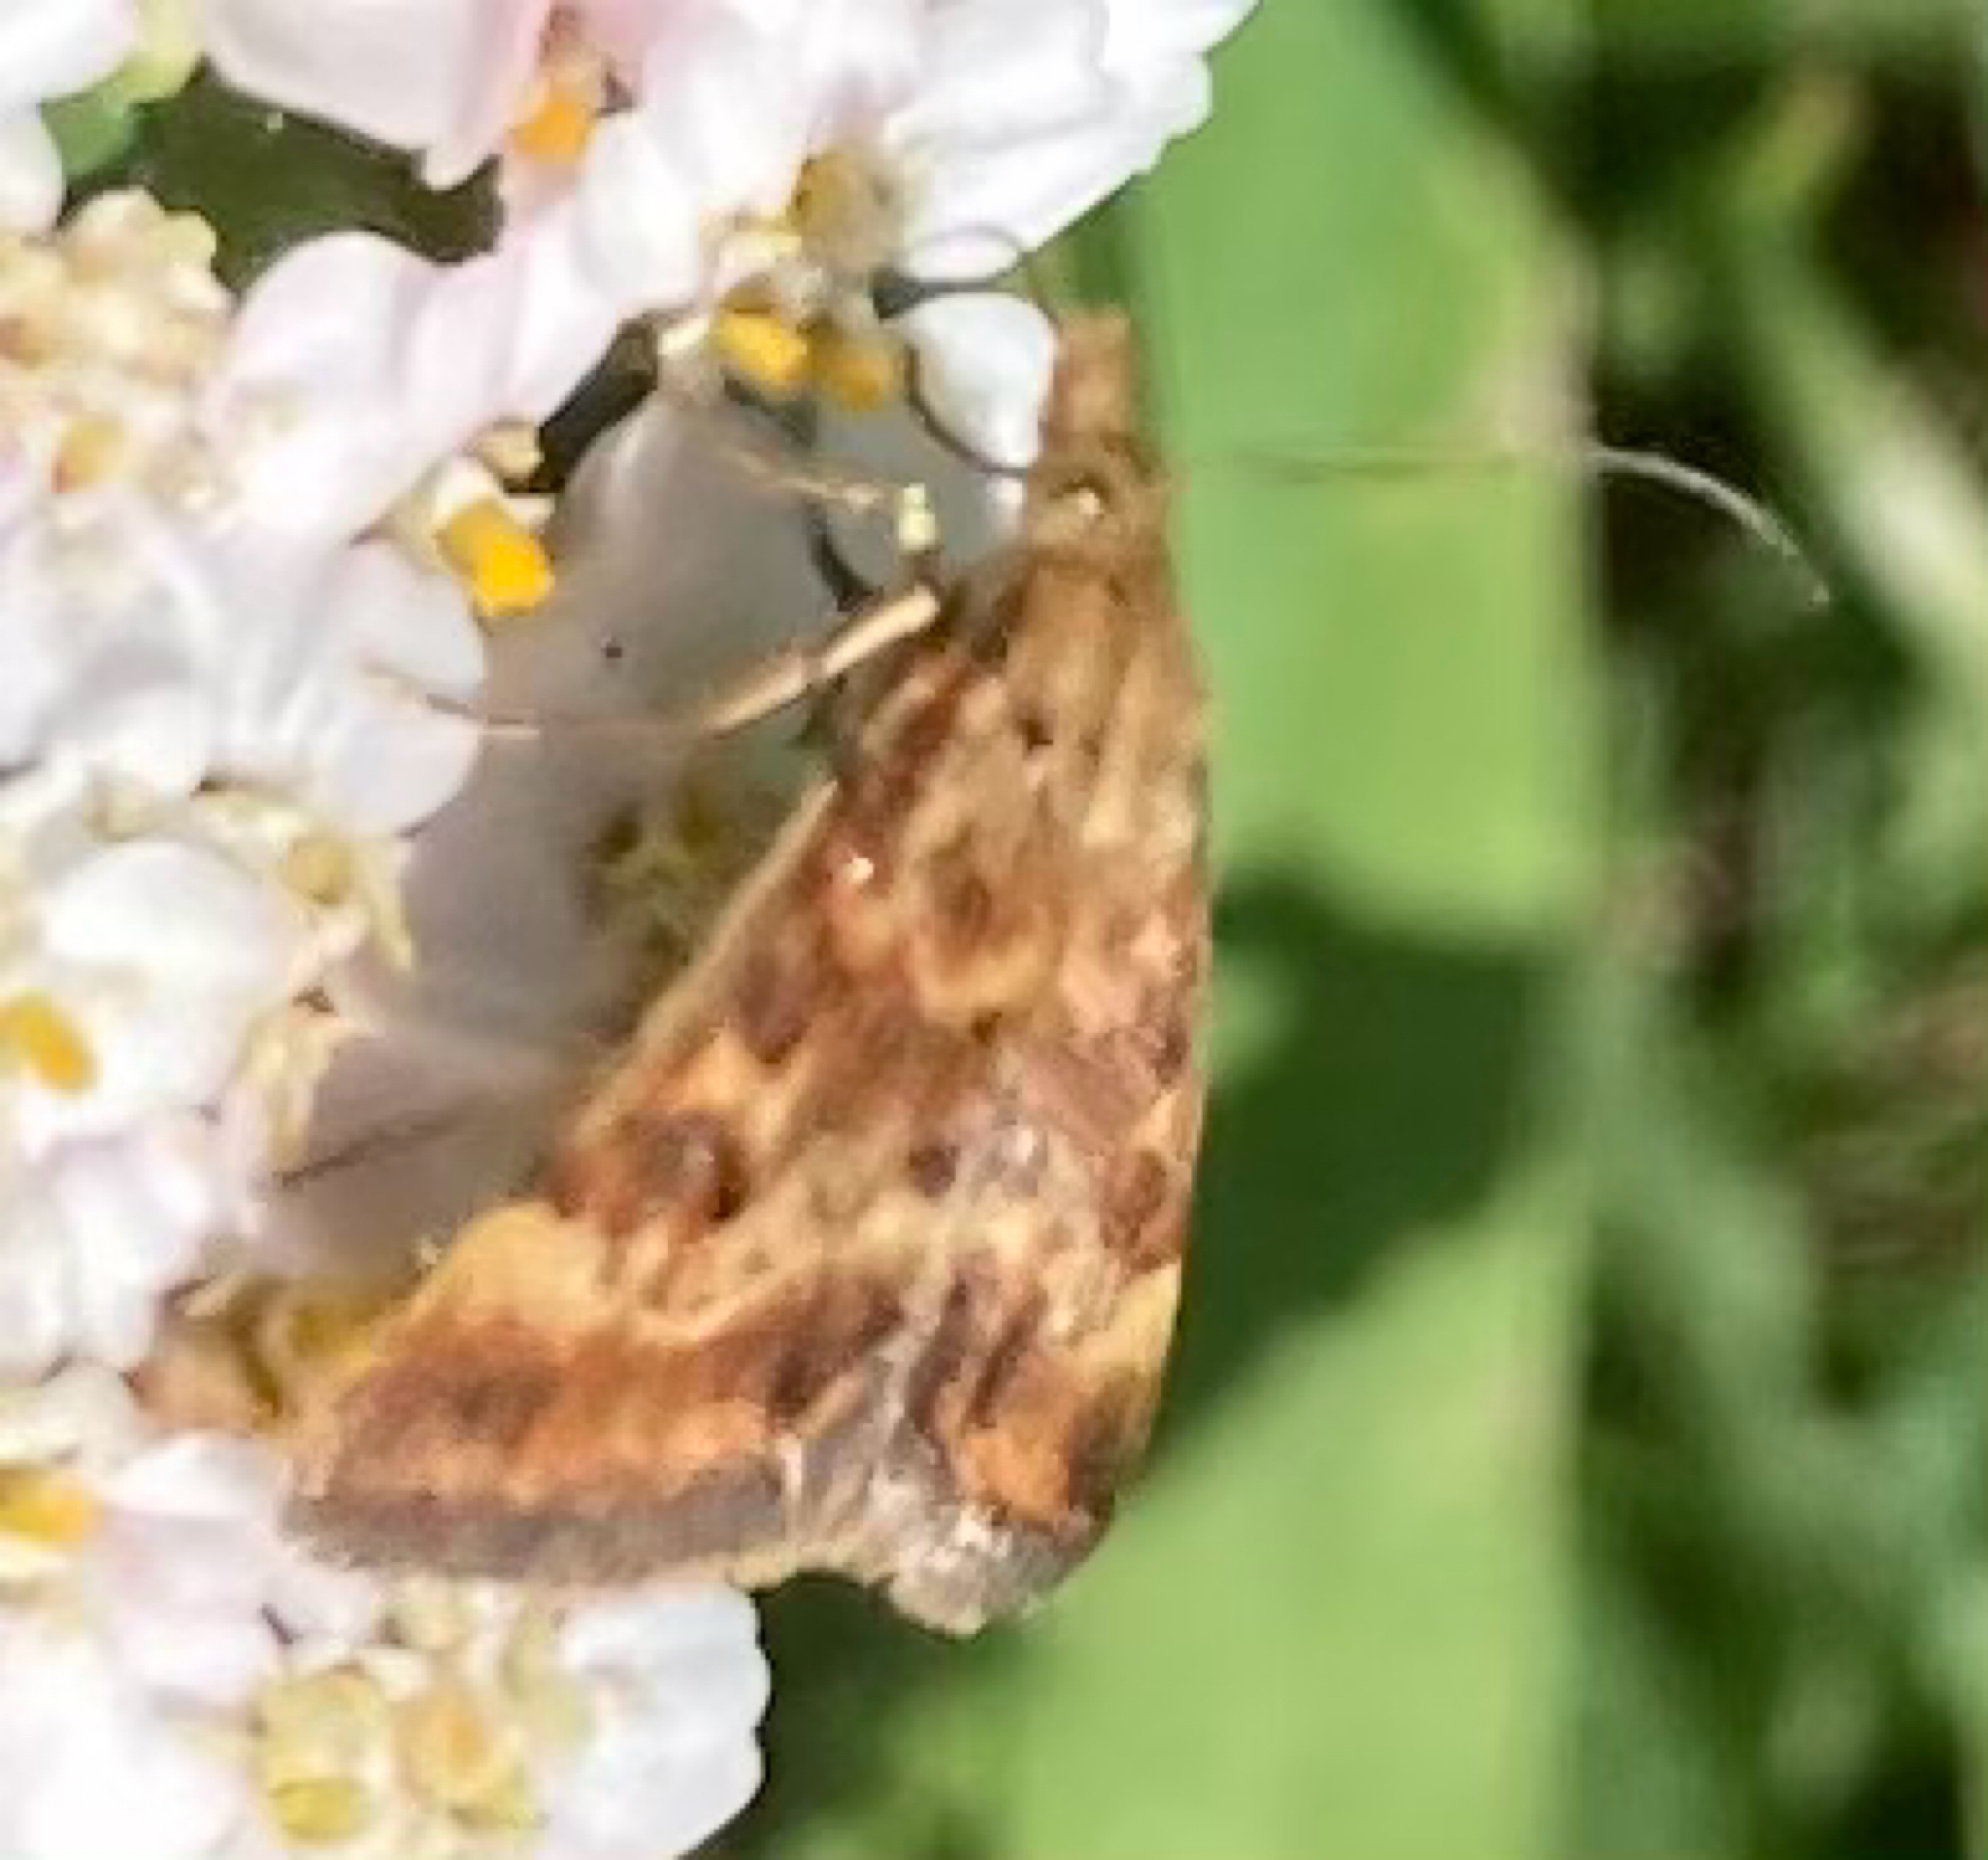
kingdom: Animalia
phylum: Arthropoda
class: Insecta
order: Lepidoptera
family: Crambidae
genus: Pyrausta
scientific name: Pyrausta despicata
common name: Straw-barred pearl
